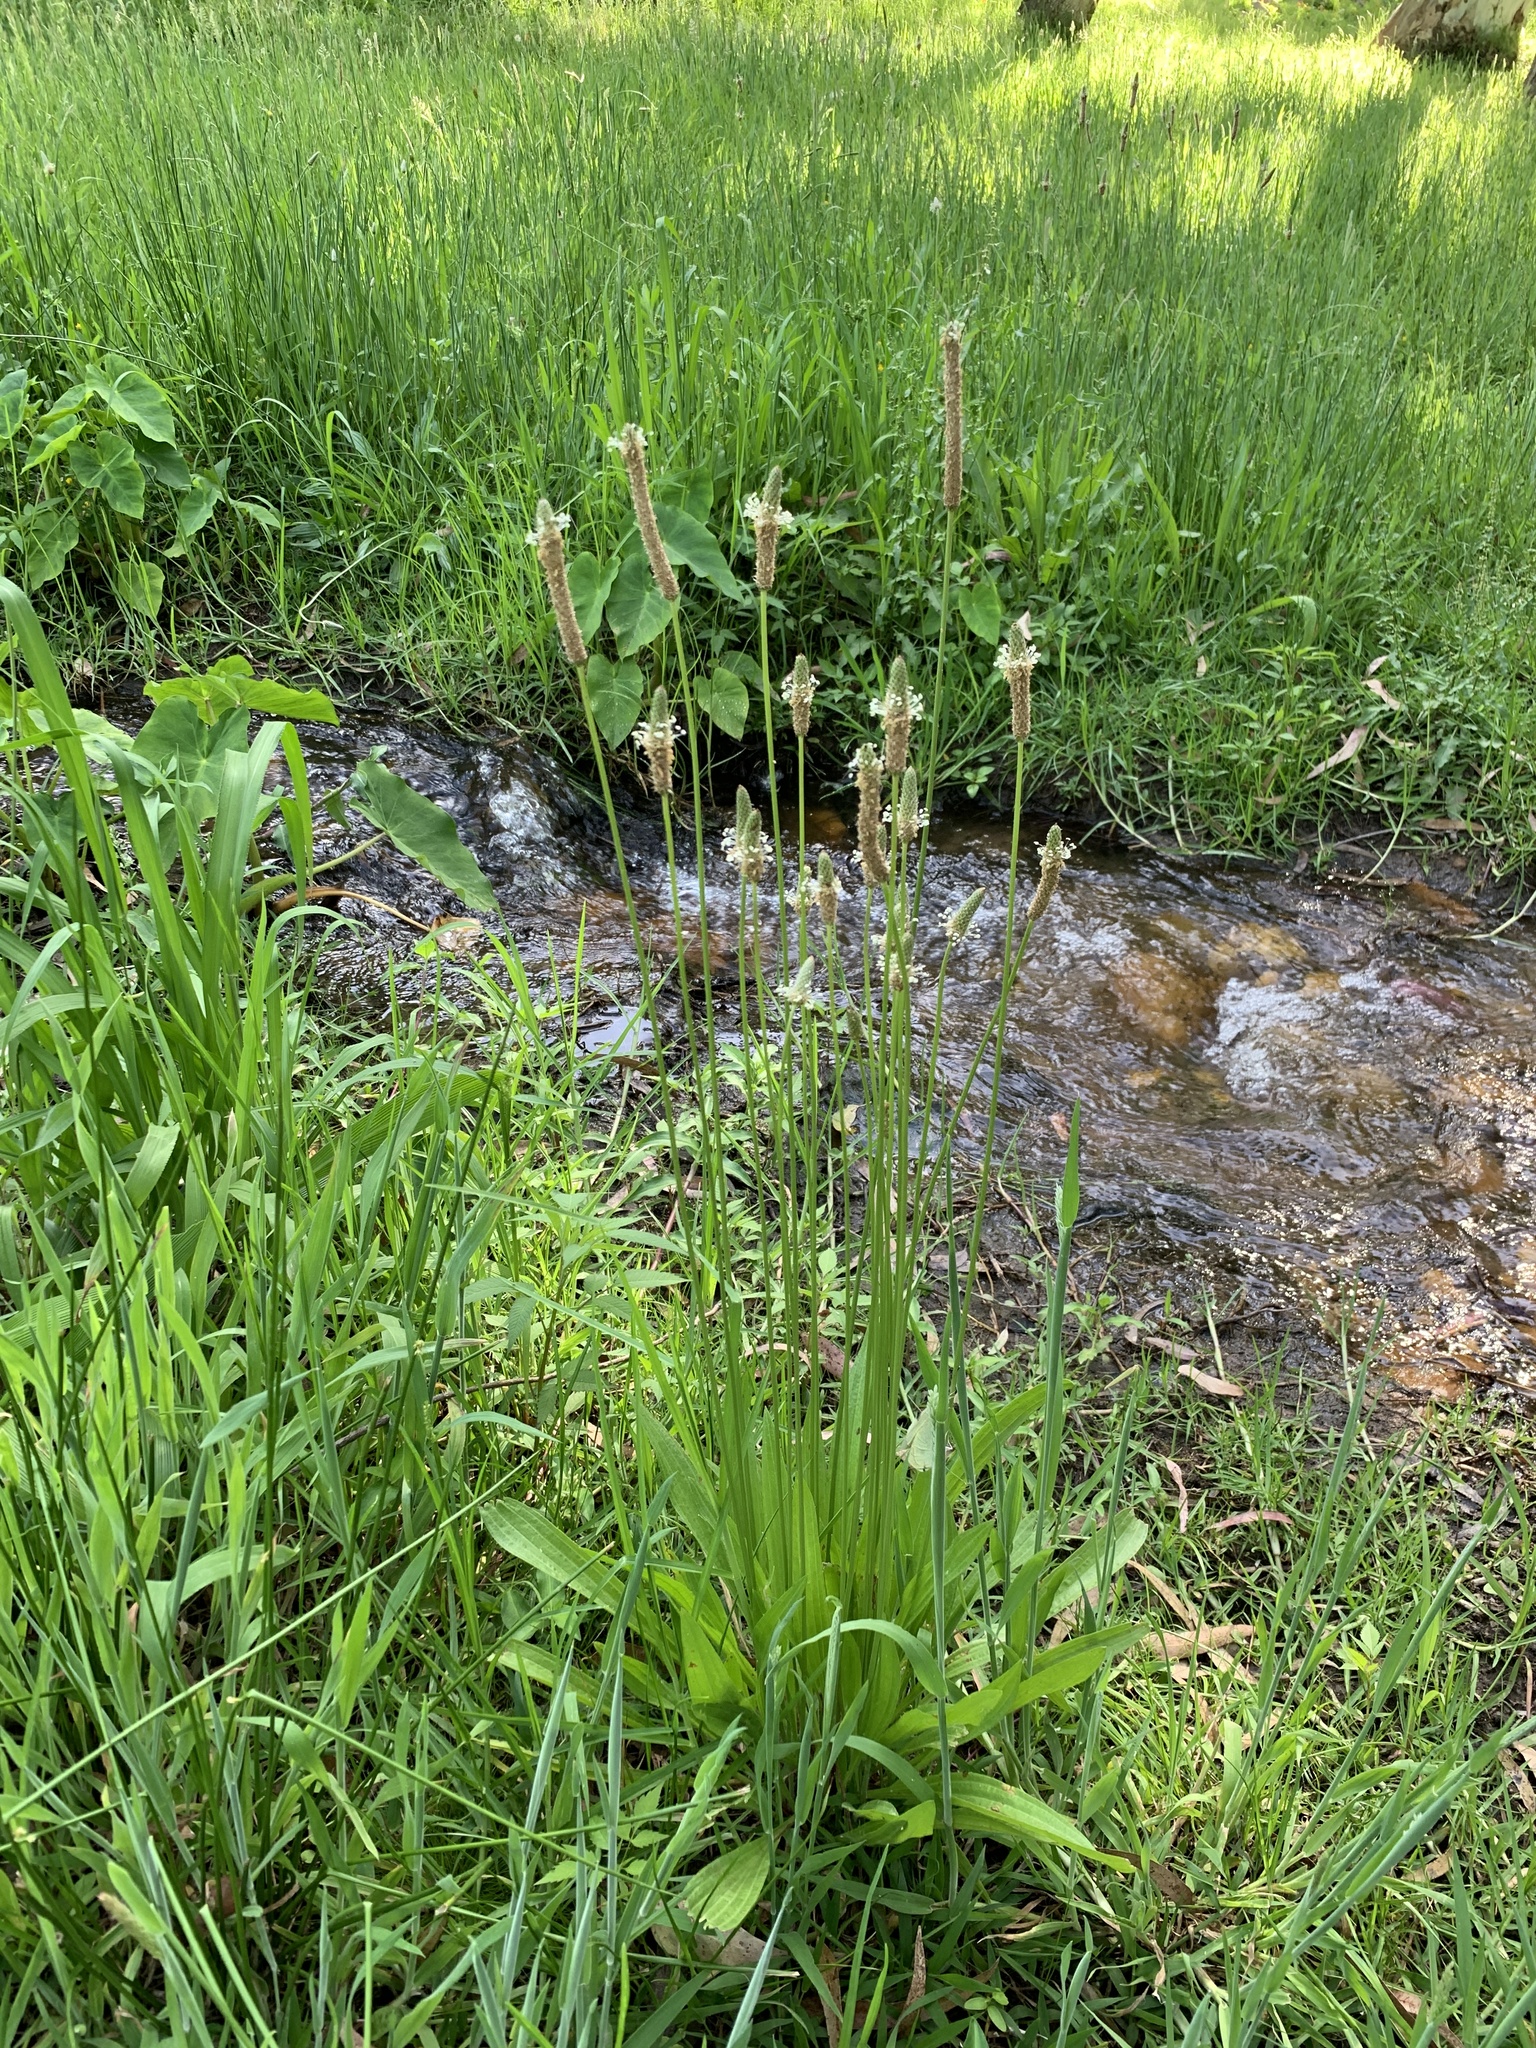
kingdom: Plantae
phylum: Tracheophyta
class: Magnoliopsida
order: Lamiales
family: Plantaginaceae
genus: Plantago
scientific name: Plantago lanceolata
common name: Ribwort plantain
